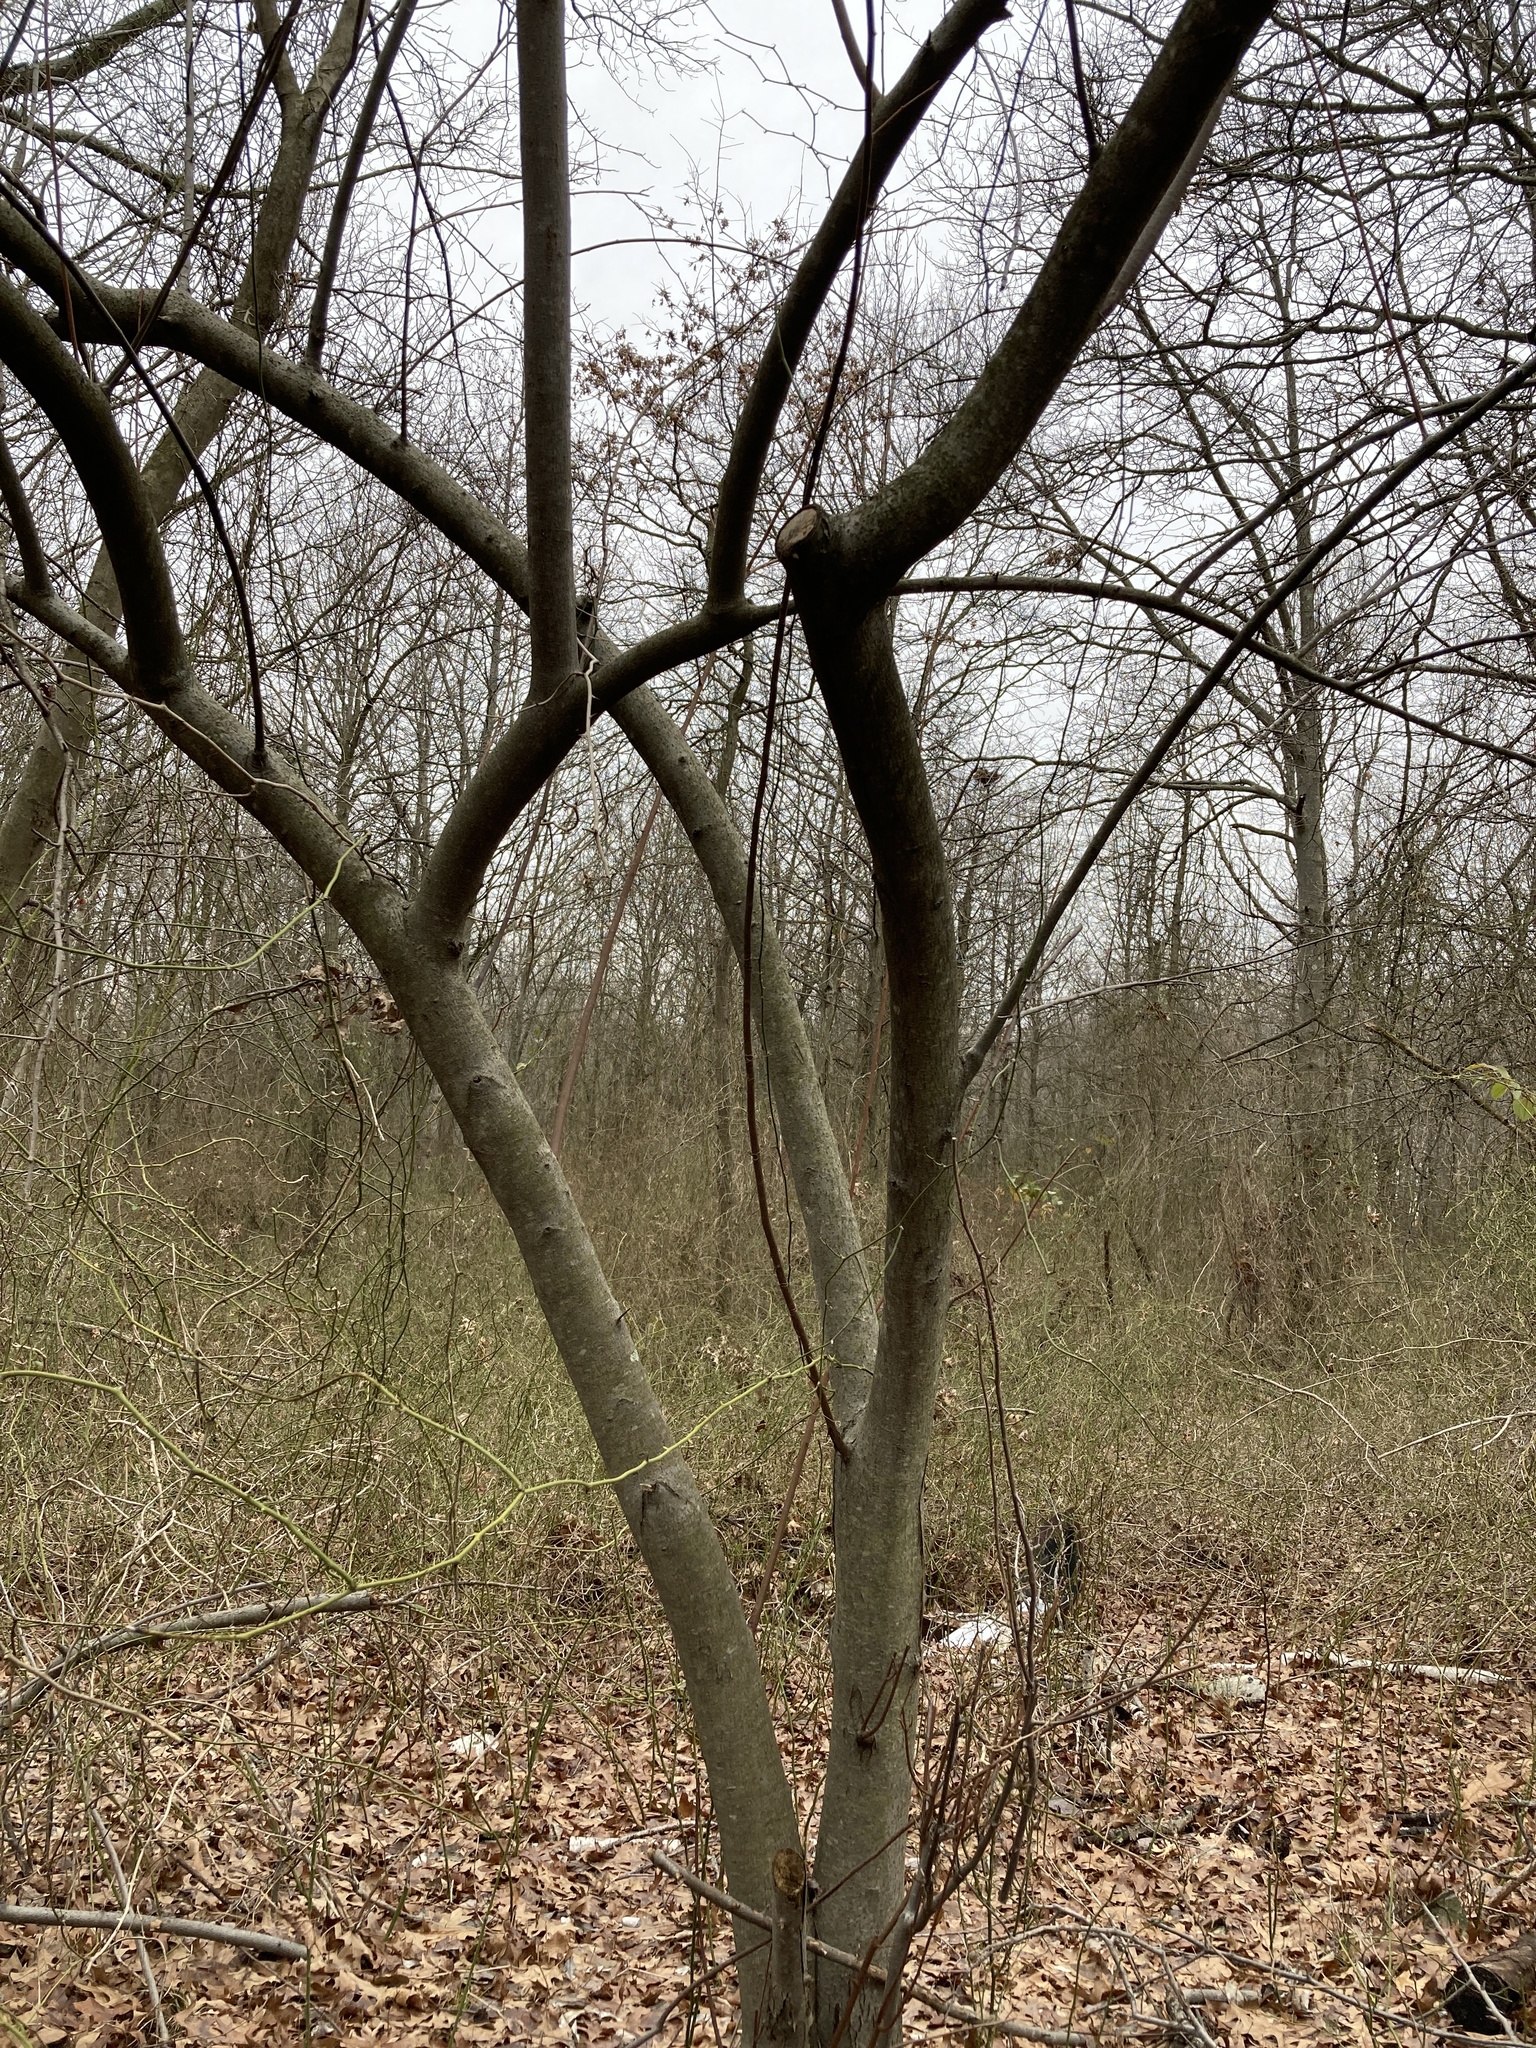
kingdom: Plantae
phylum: Tracheophyta
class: Magnoliopsida
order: Rosales
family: Elaeagnaceae
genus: Elaeagnus
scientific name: Elaeagnus umbellata
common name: Autumn olive
